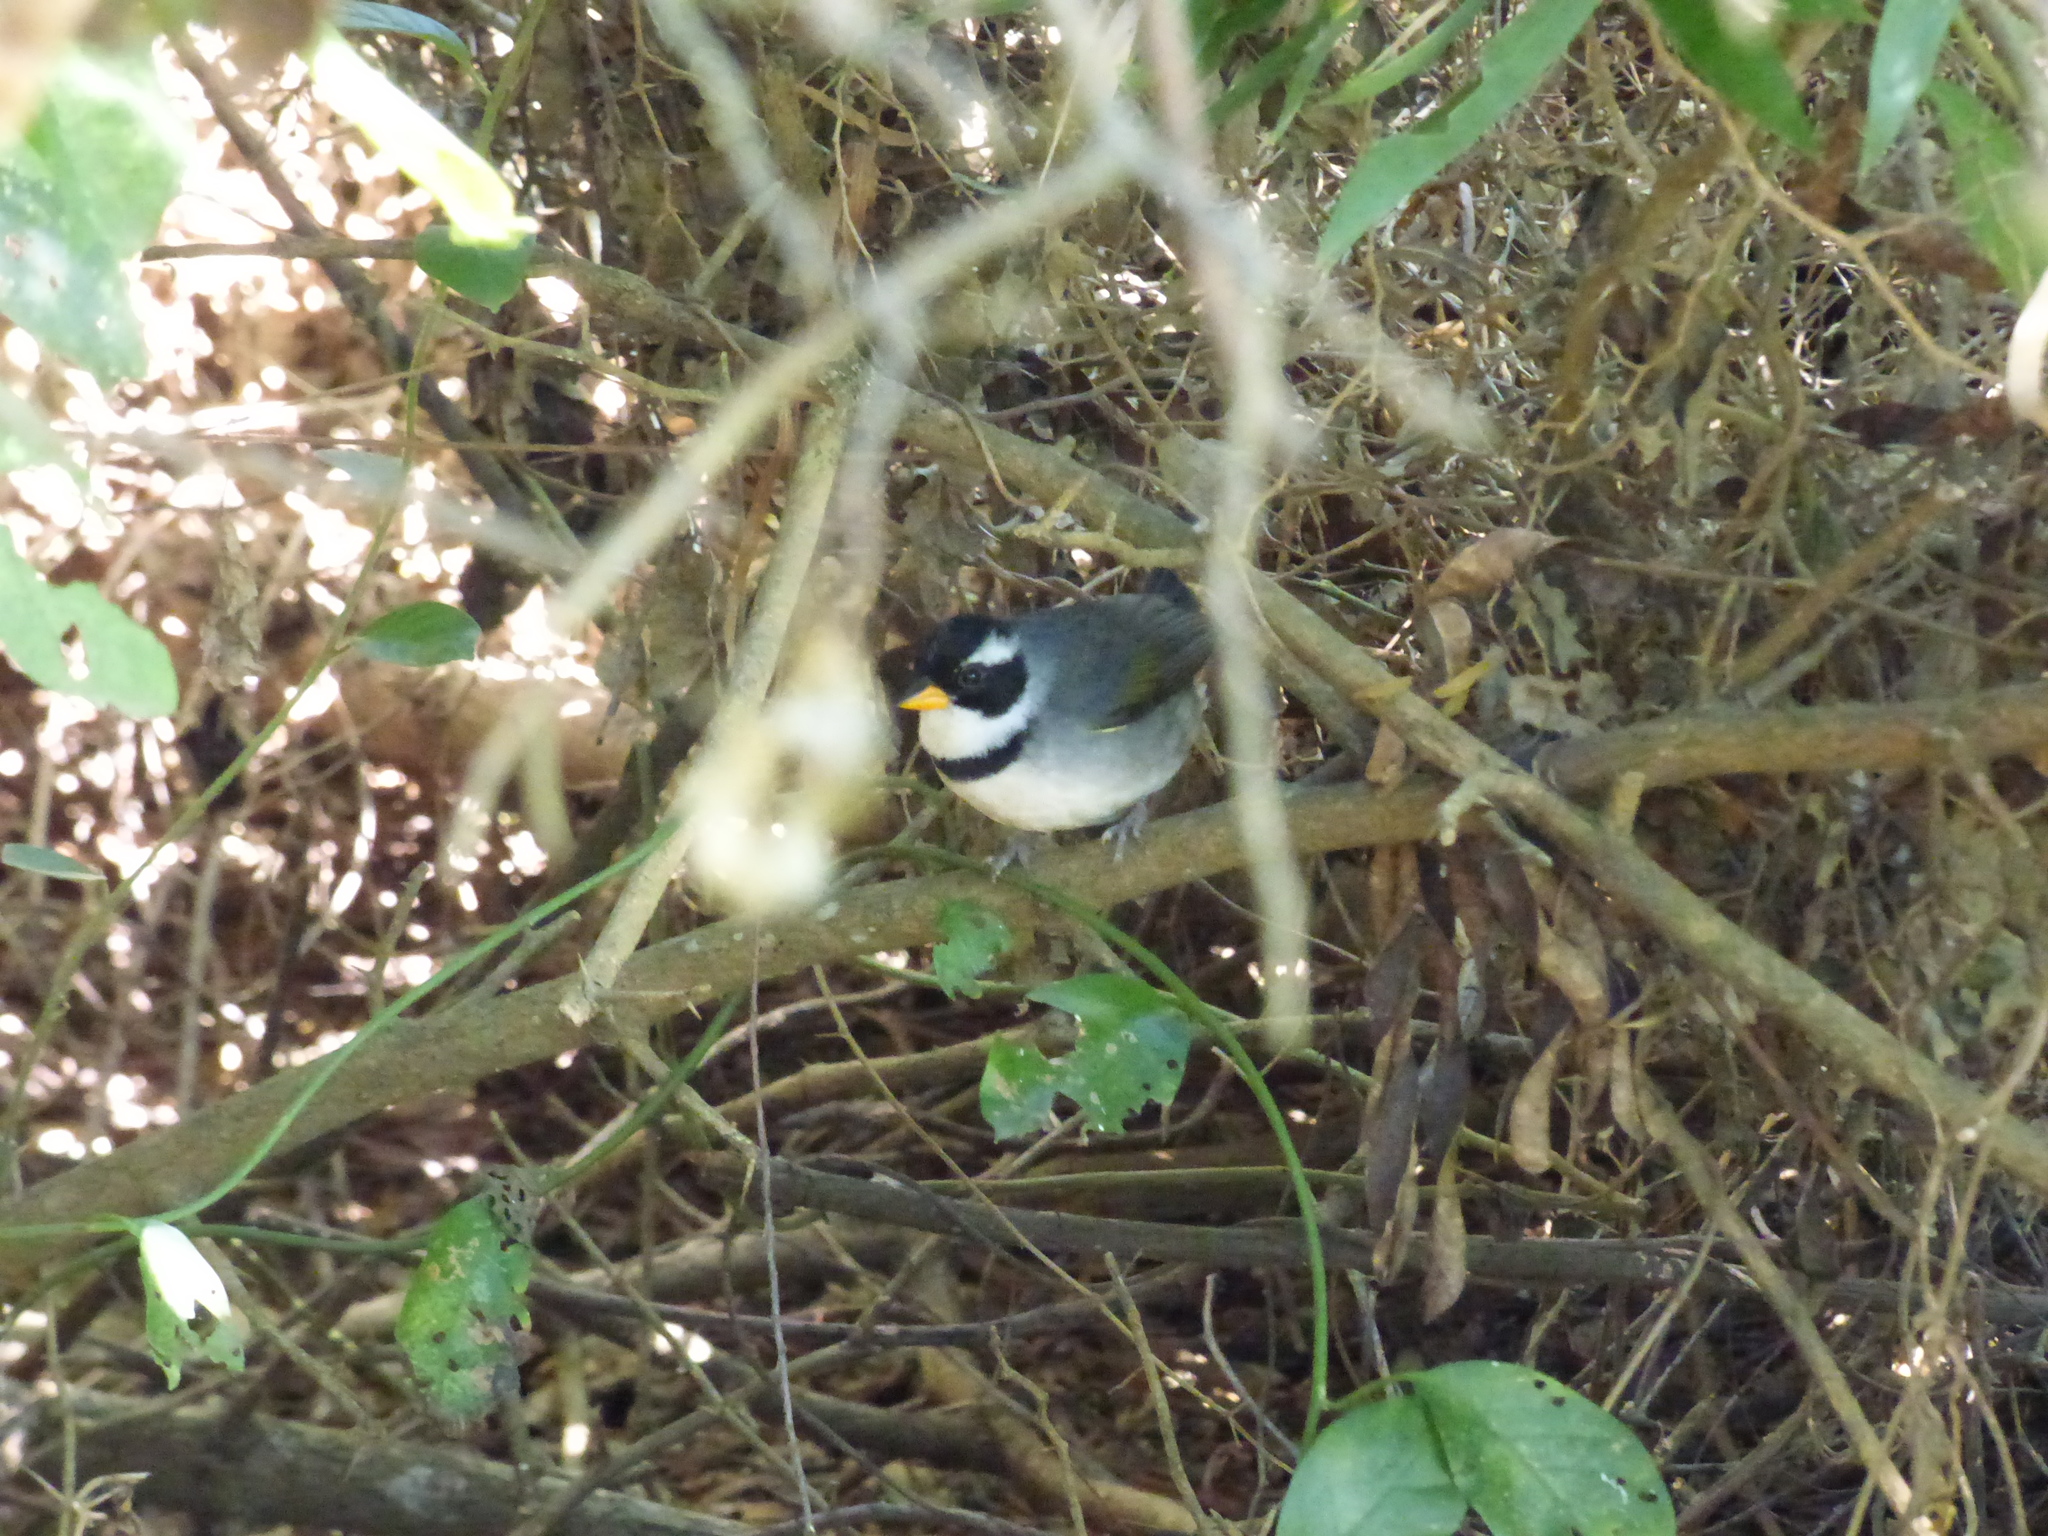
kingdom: Animalia
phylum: Chordata
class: Aves
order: Passeriformes
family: Passerellidae
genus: Arremon
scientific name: Arremon flavirostris
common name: Saffron-billed sparrow
